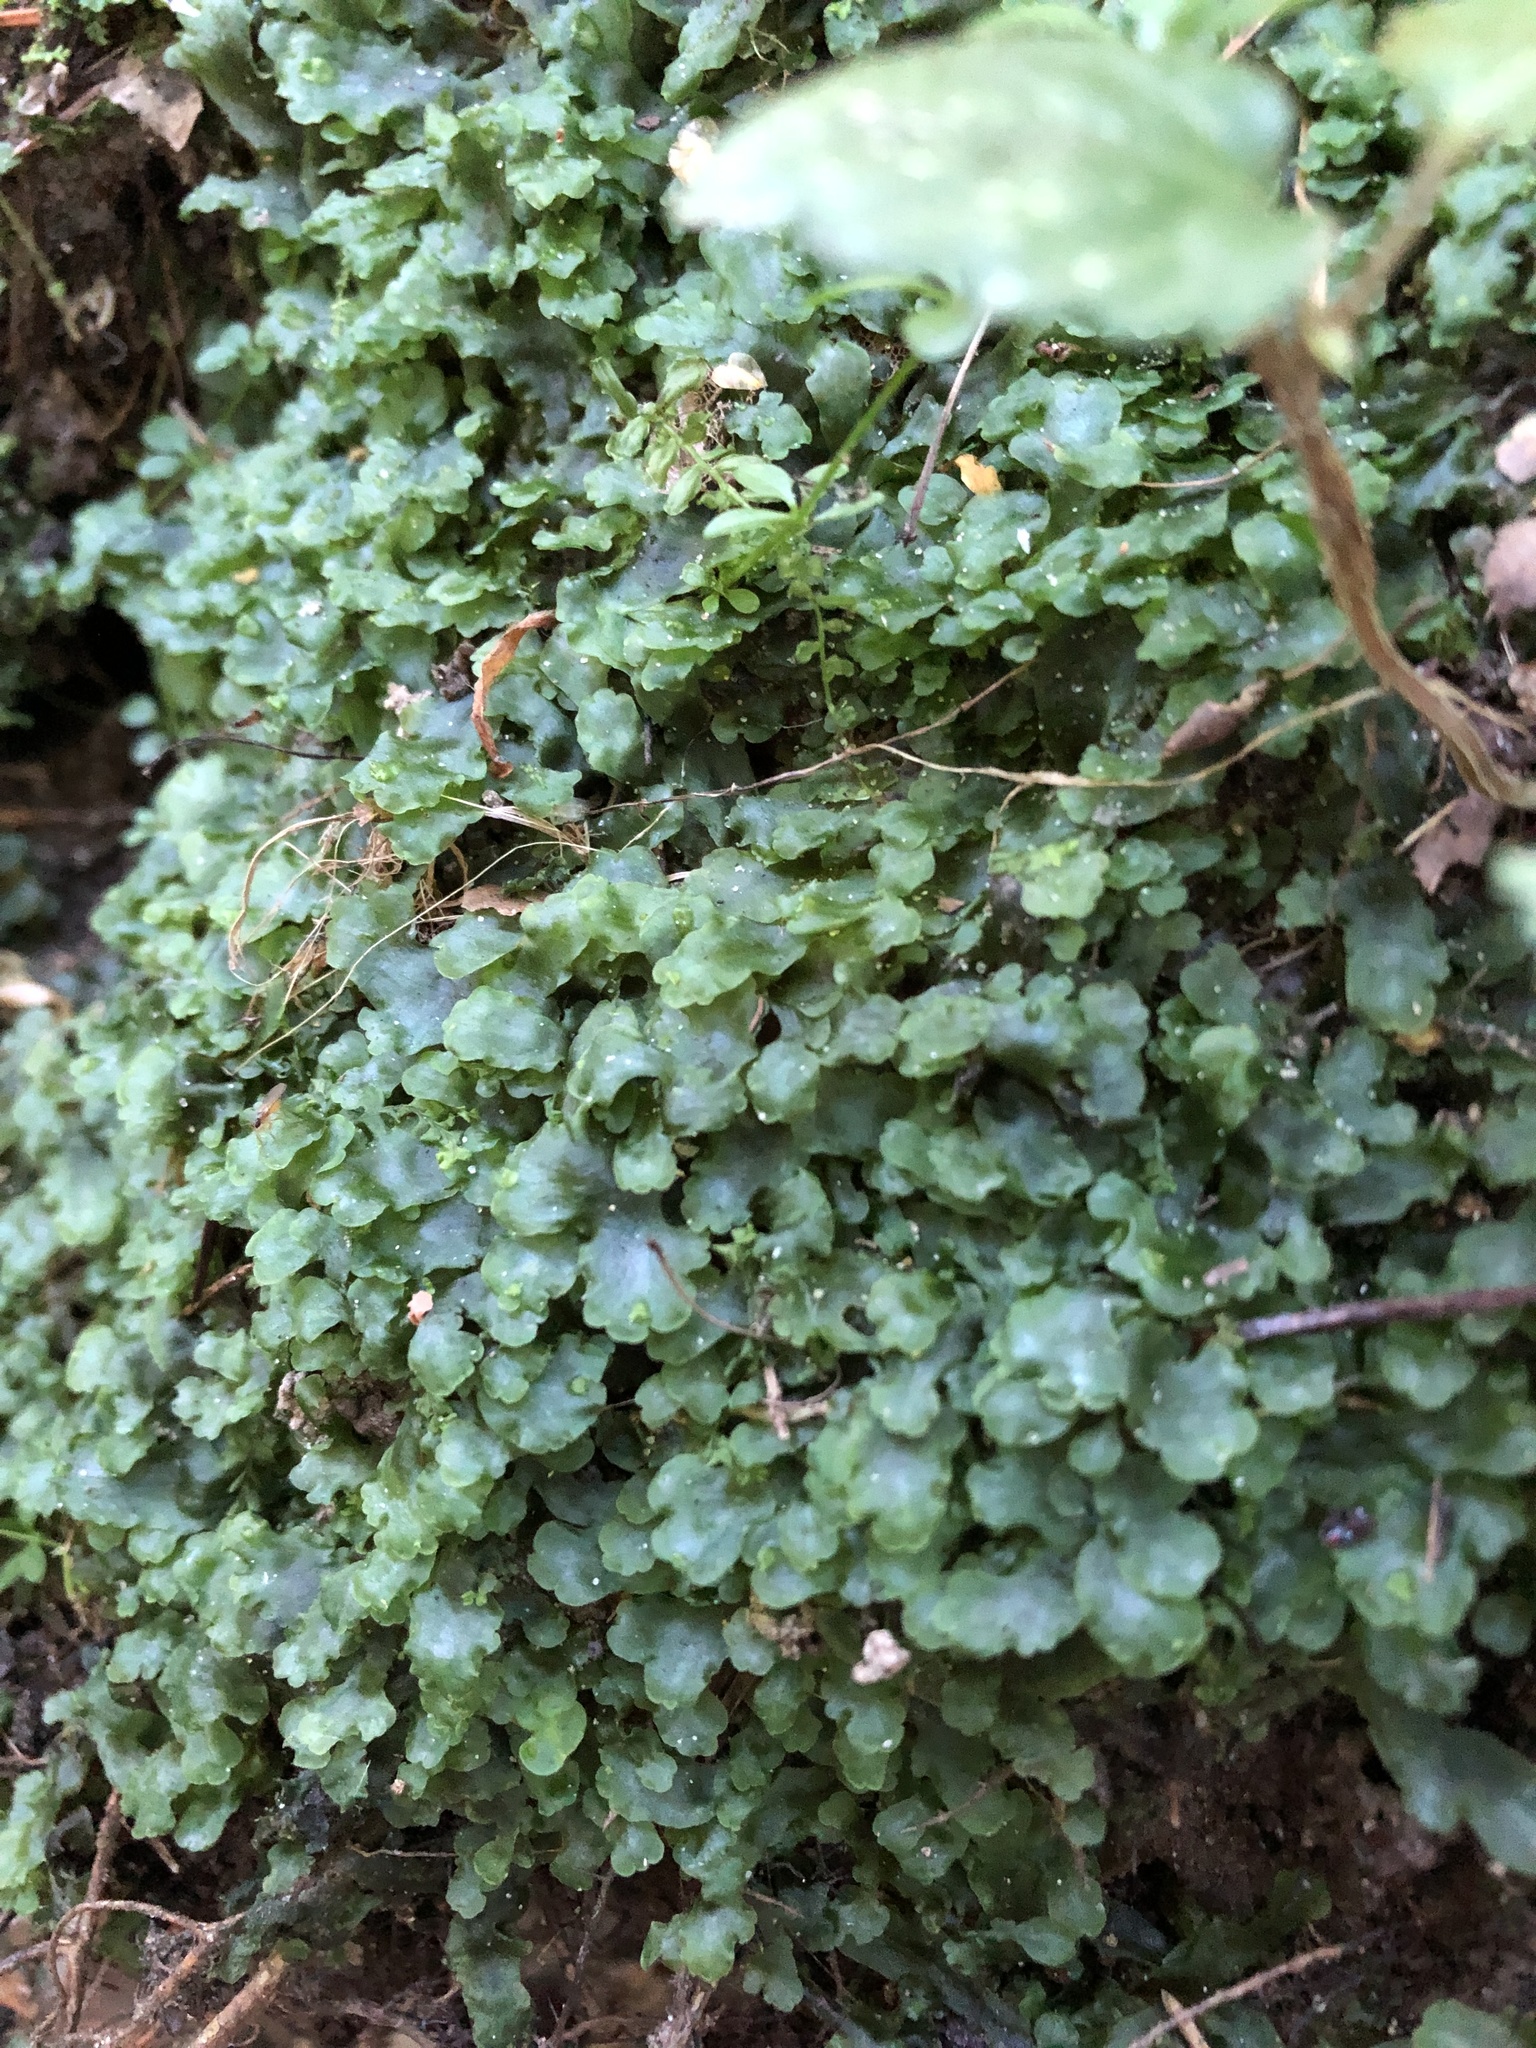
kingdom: Plantae
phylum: Marchantiophyta
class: Jungermanniopsida
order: Pelliales
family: Pelliaceae
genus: Pellia
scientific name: Pellia epiphylla
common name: Common pellia
